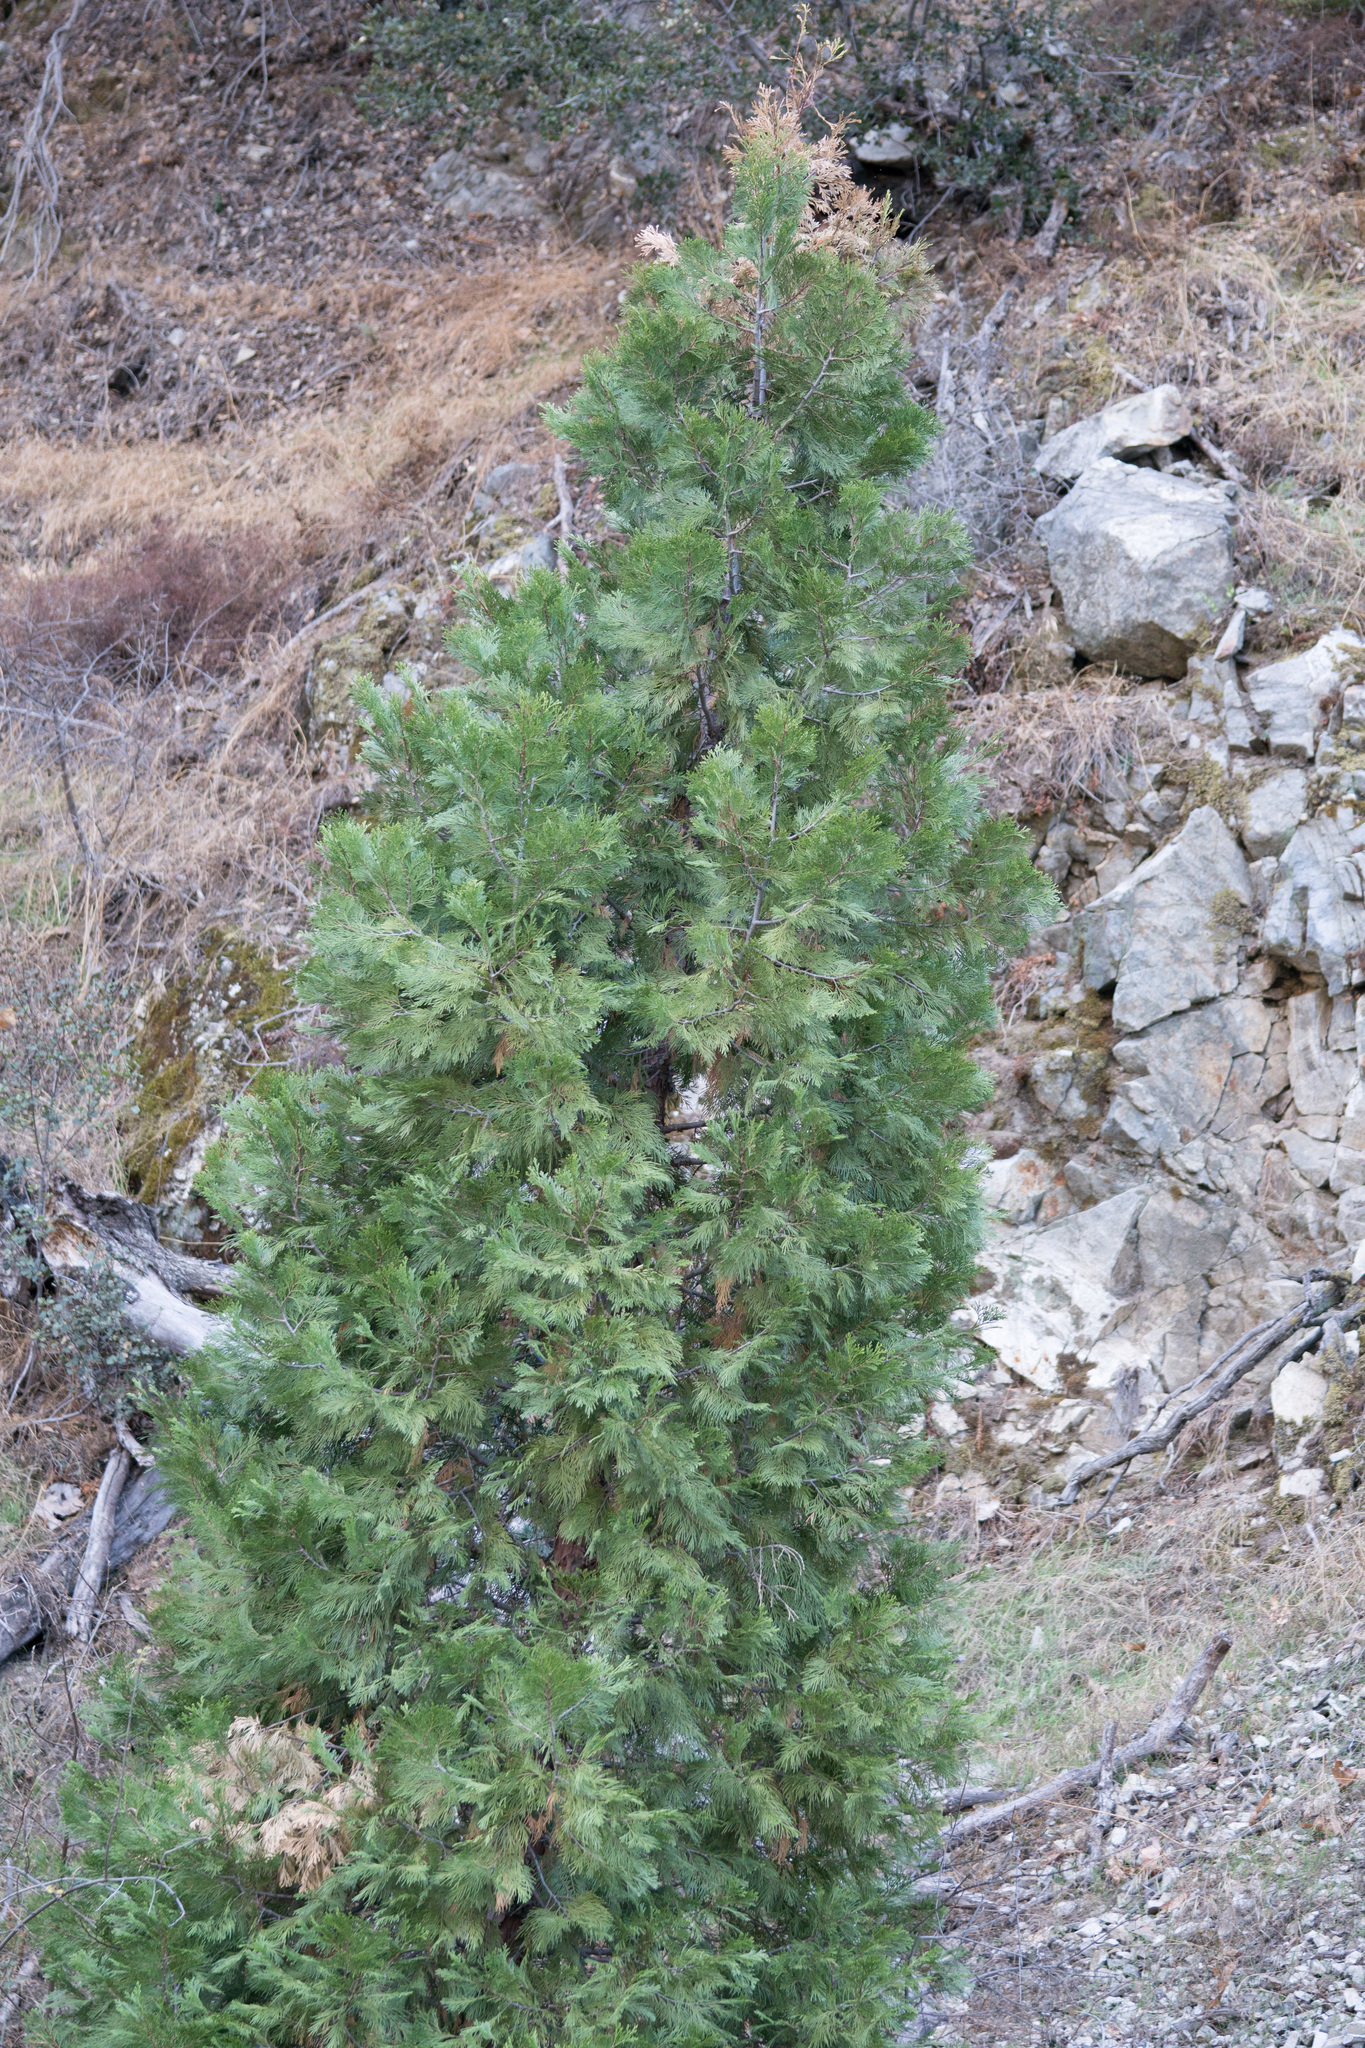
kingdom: Plantae
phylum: Tracheophyta
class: Pinopsida
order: Pinales
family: Cupressaceae
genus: Calocedrus
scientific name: Calocedrus decurrens
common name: Californian incense-cedar
